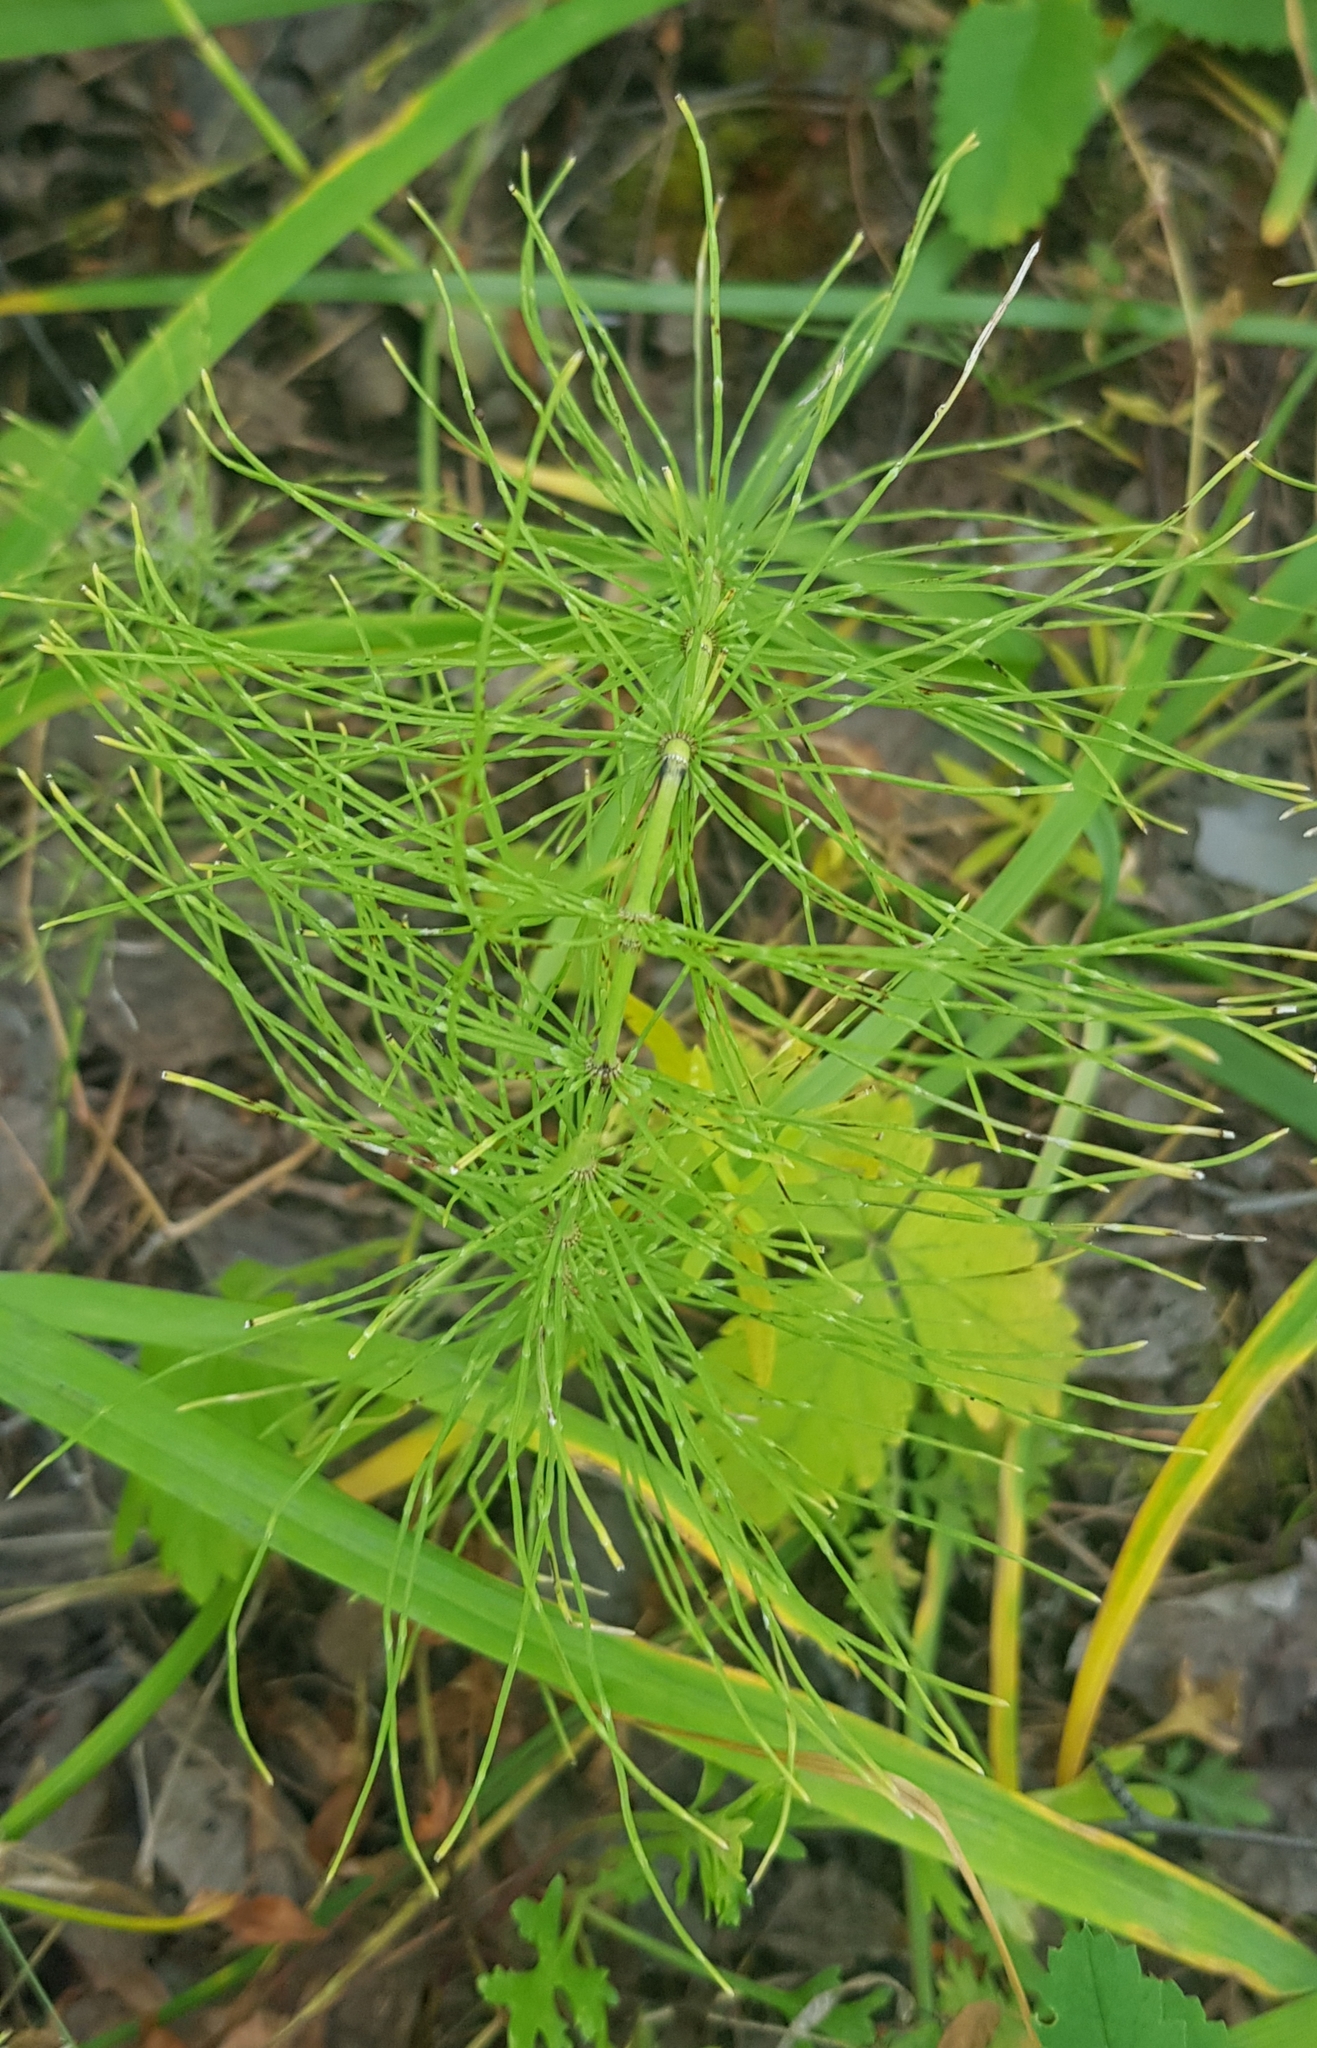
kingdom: Plantae
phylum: Tracheophyta
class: Polypodiopsida
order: Equisetales
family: Equisetaceae
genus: Equisetum
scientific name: Equisetum pratense
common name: Meadow horsetail
